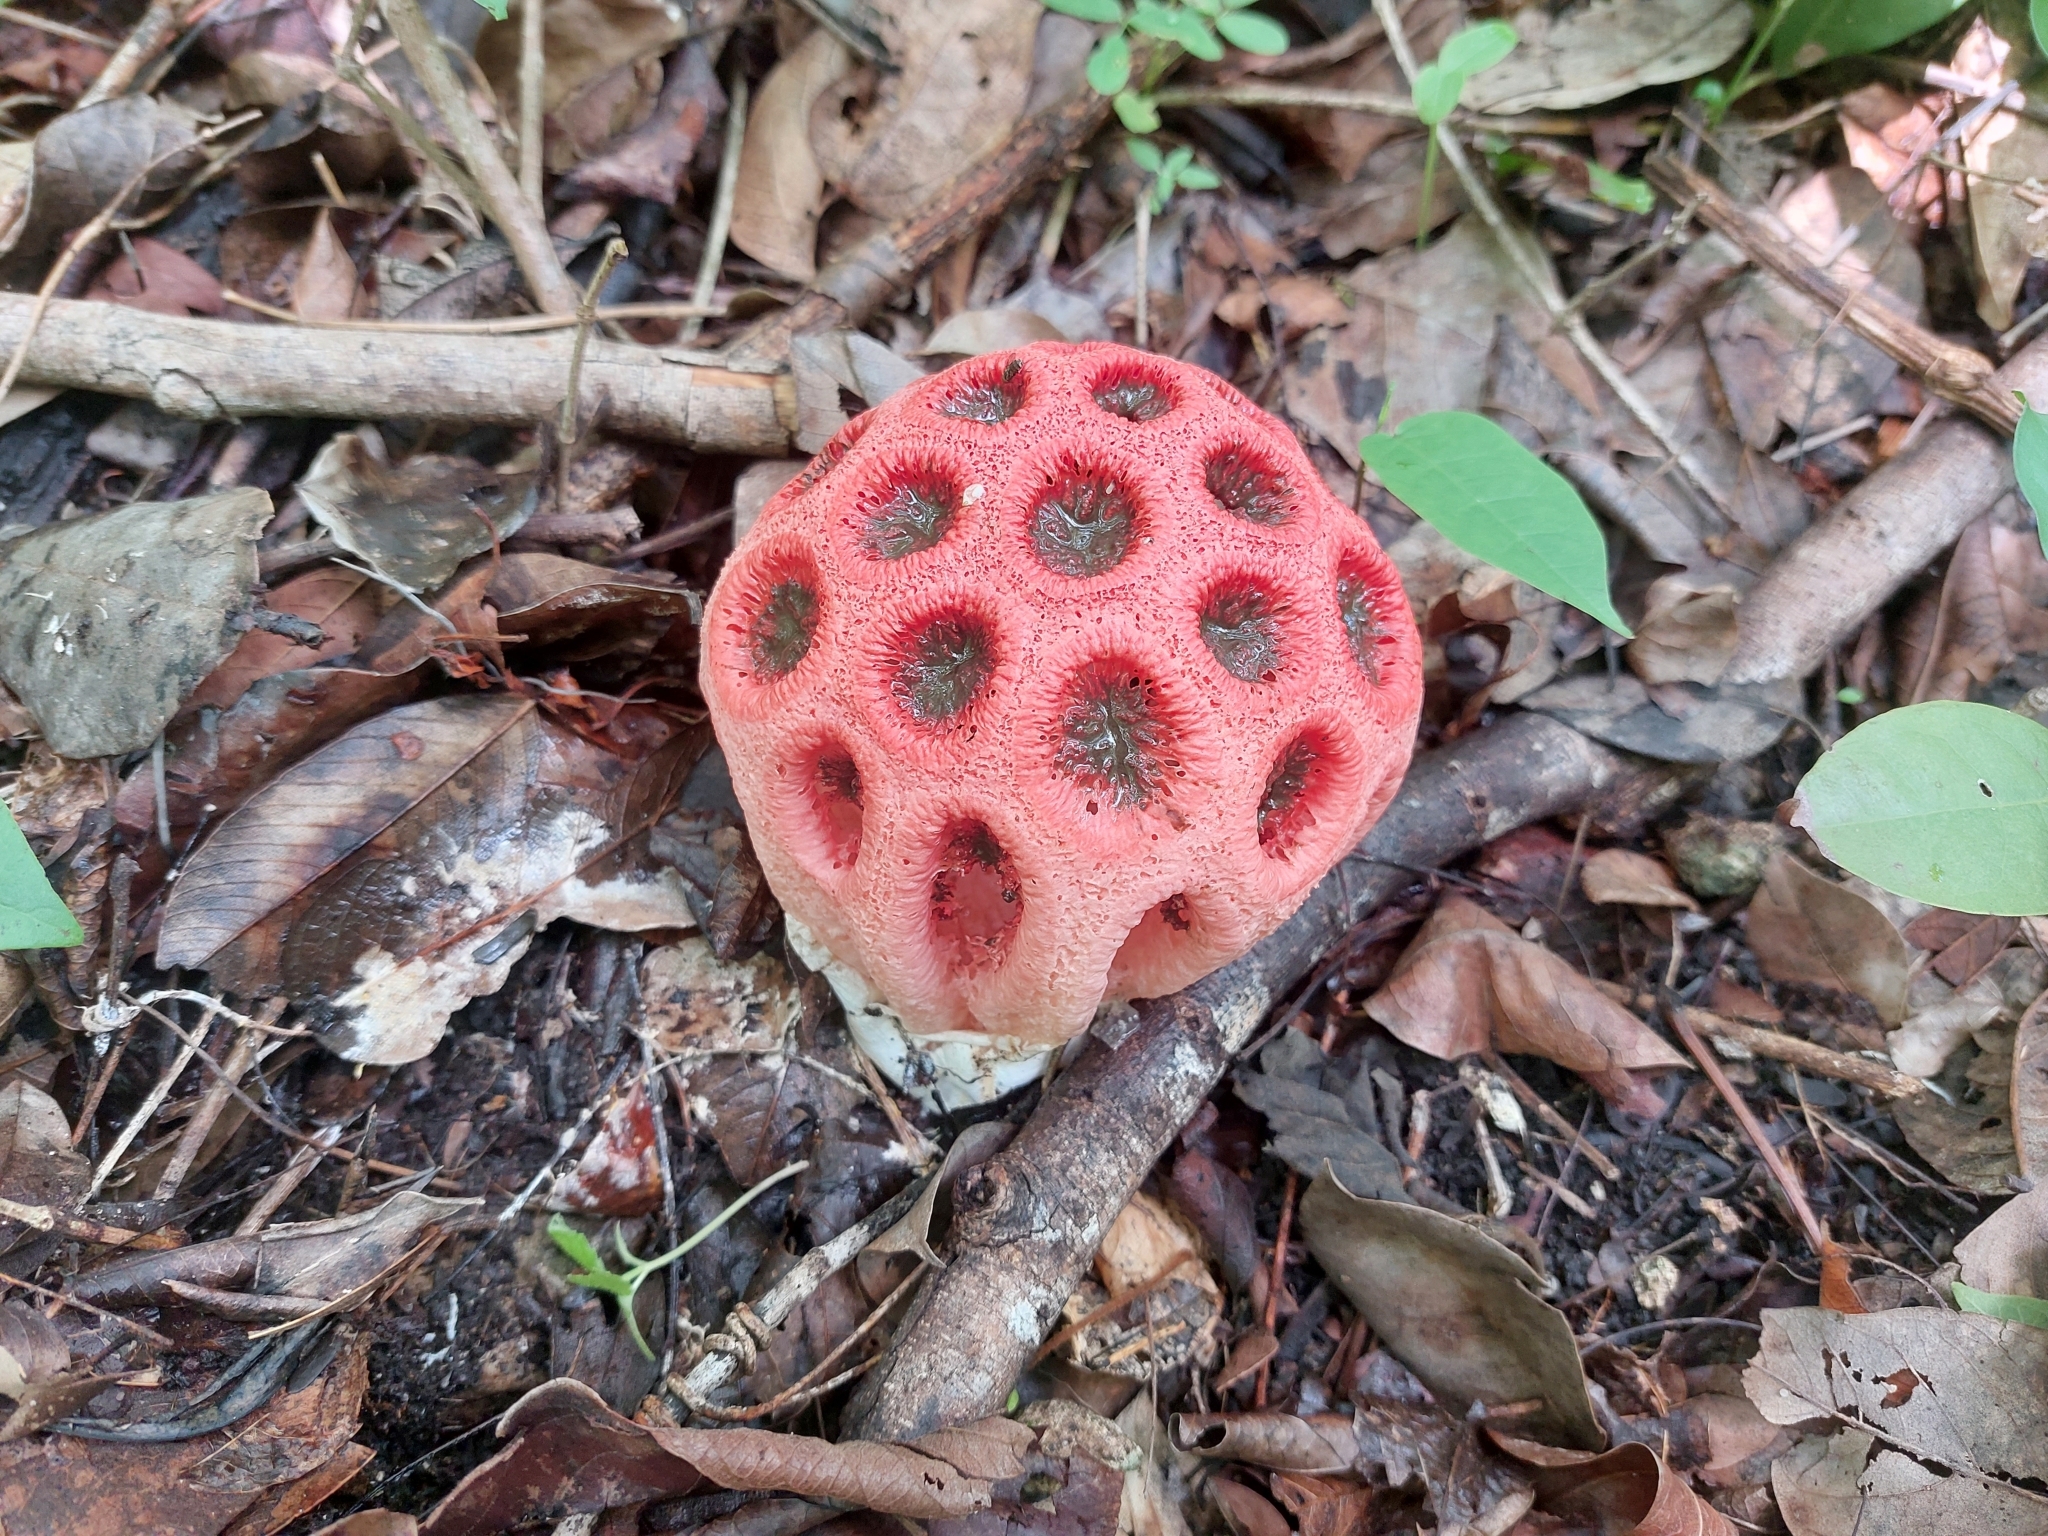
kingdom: Fungi
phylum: Basidiomycota
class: Agaricomycetes
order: Phallales
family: Phallaceae
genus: Clathrus
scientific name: Clathrus crispatus
